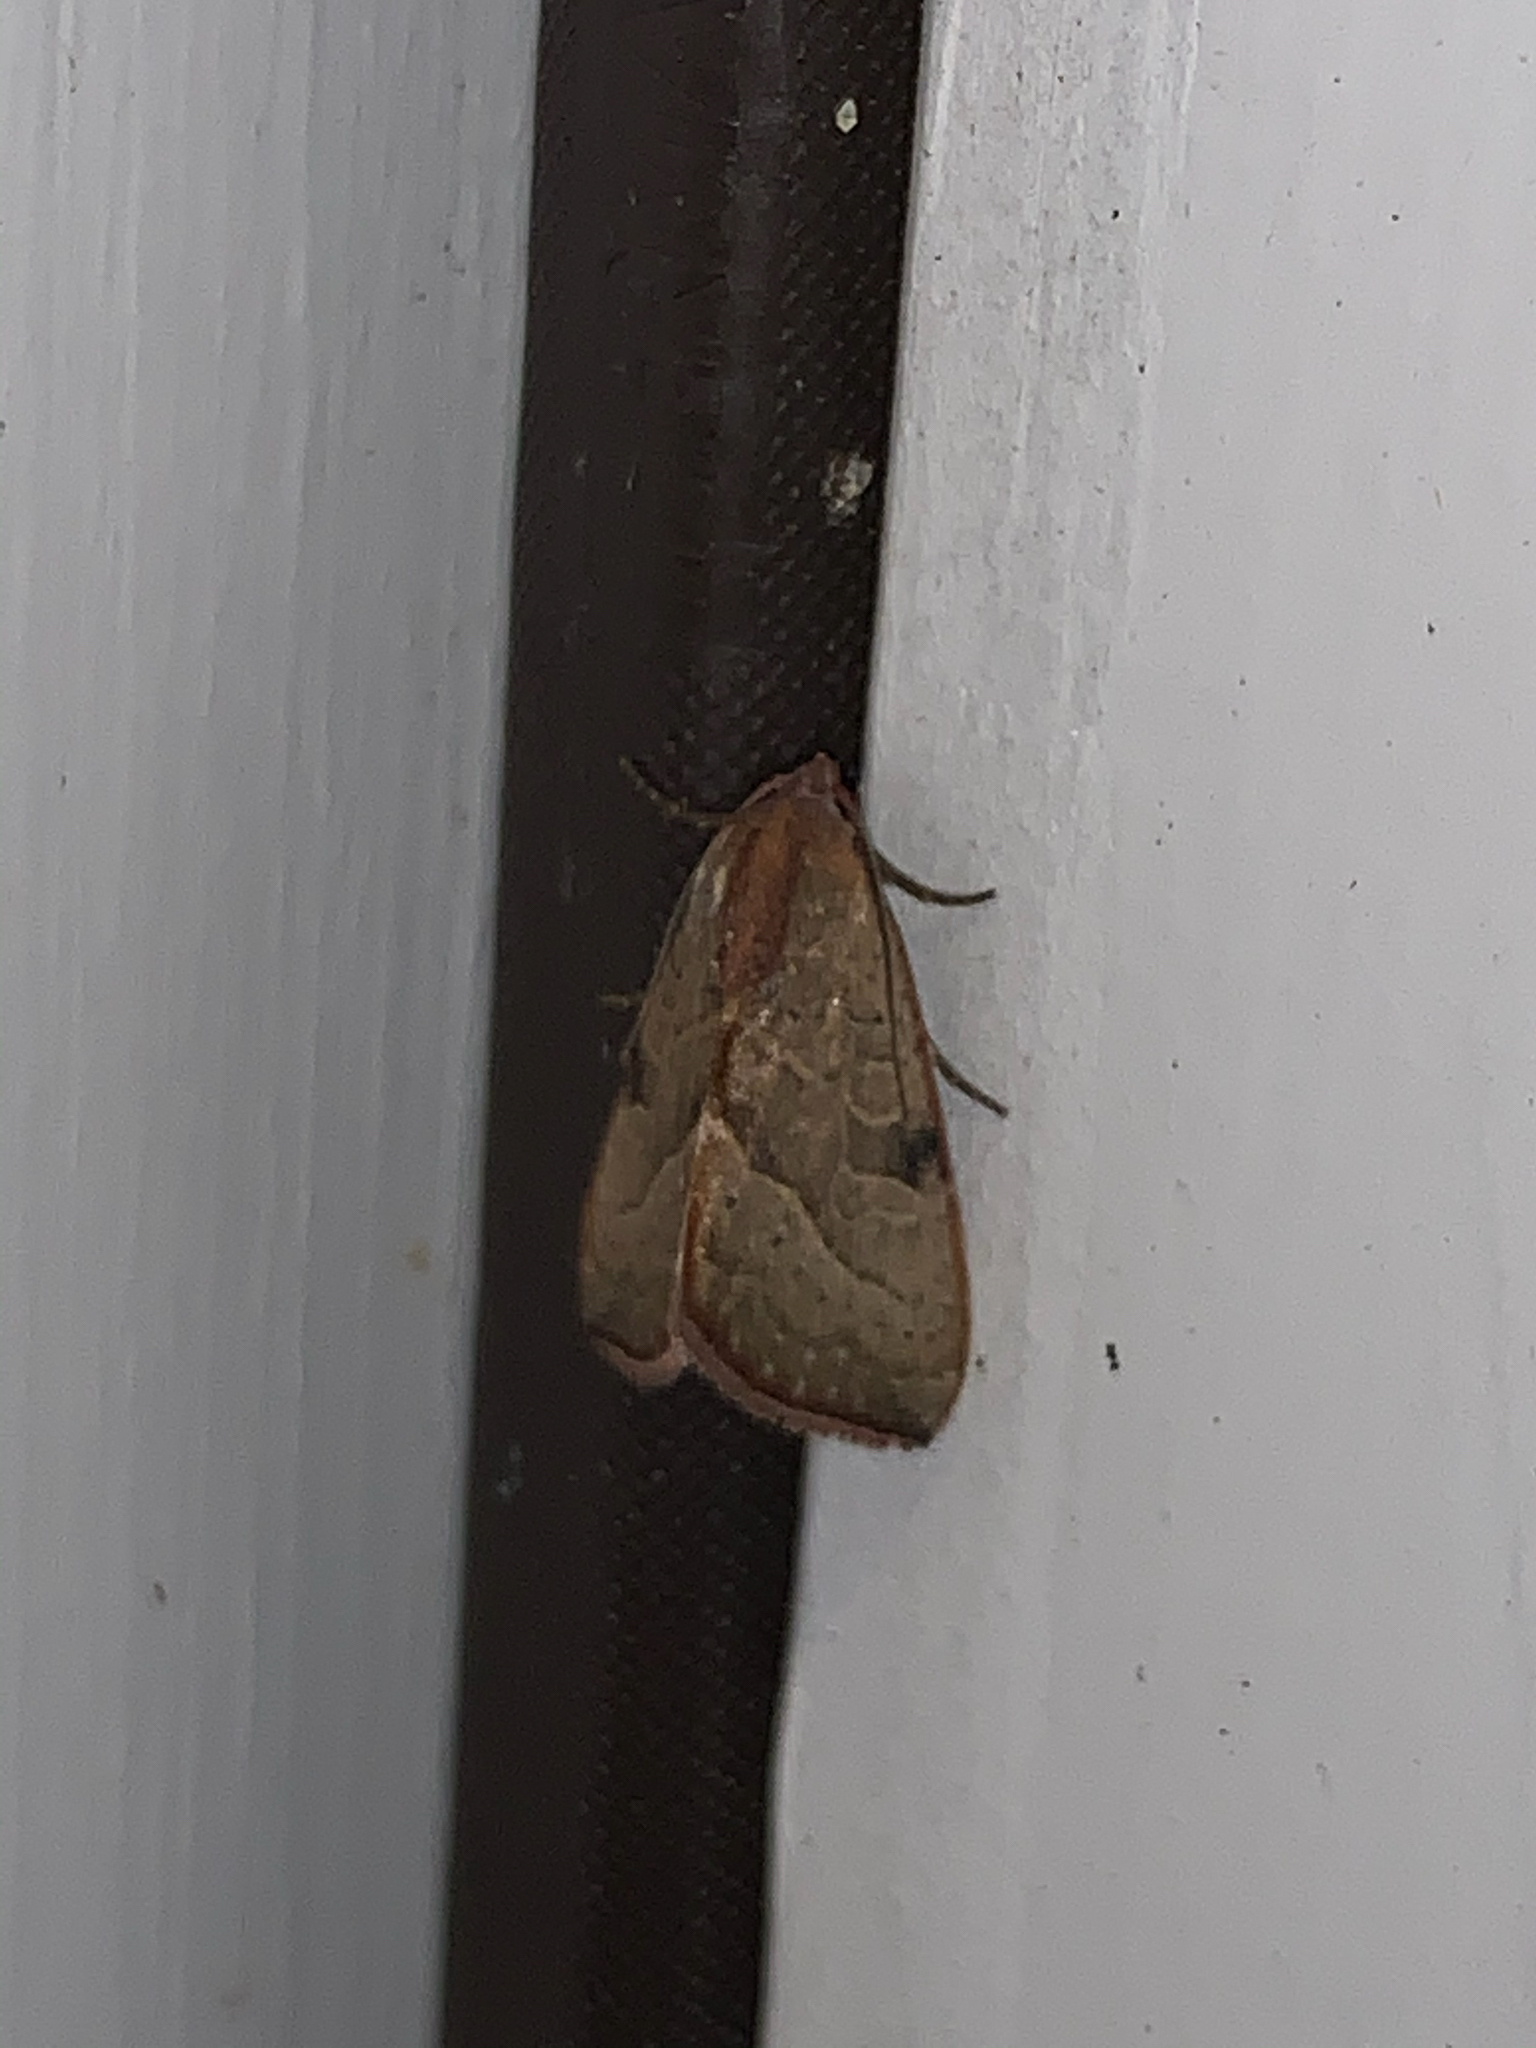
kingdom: Animalia
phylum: Arthropoda
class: Insecta
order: Lepidoptera
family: Noctuidae
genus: Galgula
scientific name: Galgula partita
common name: Wedgeling
